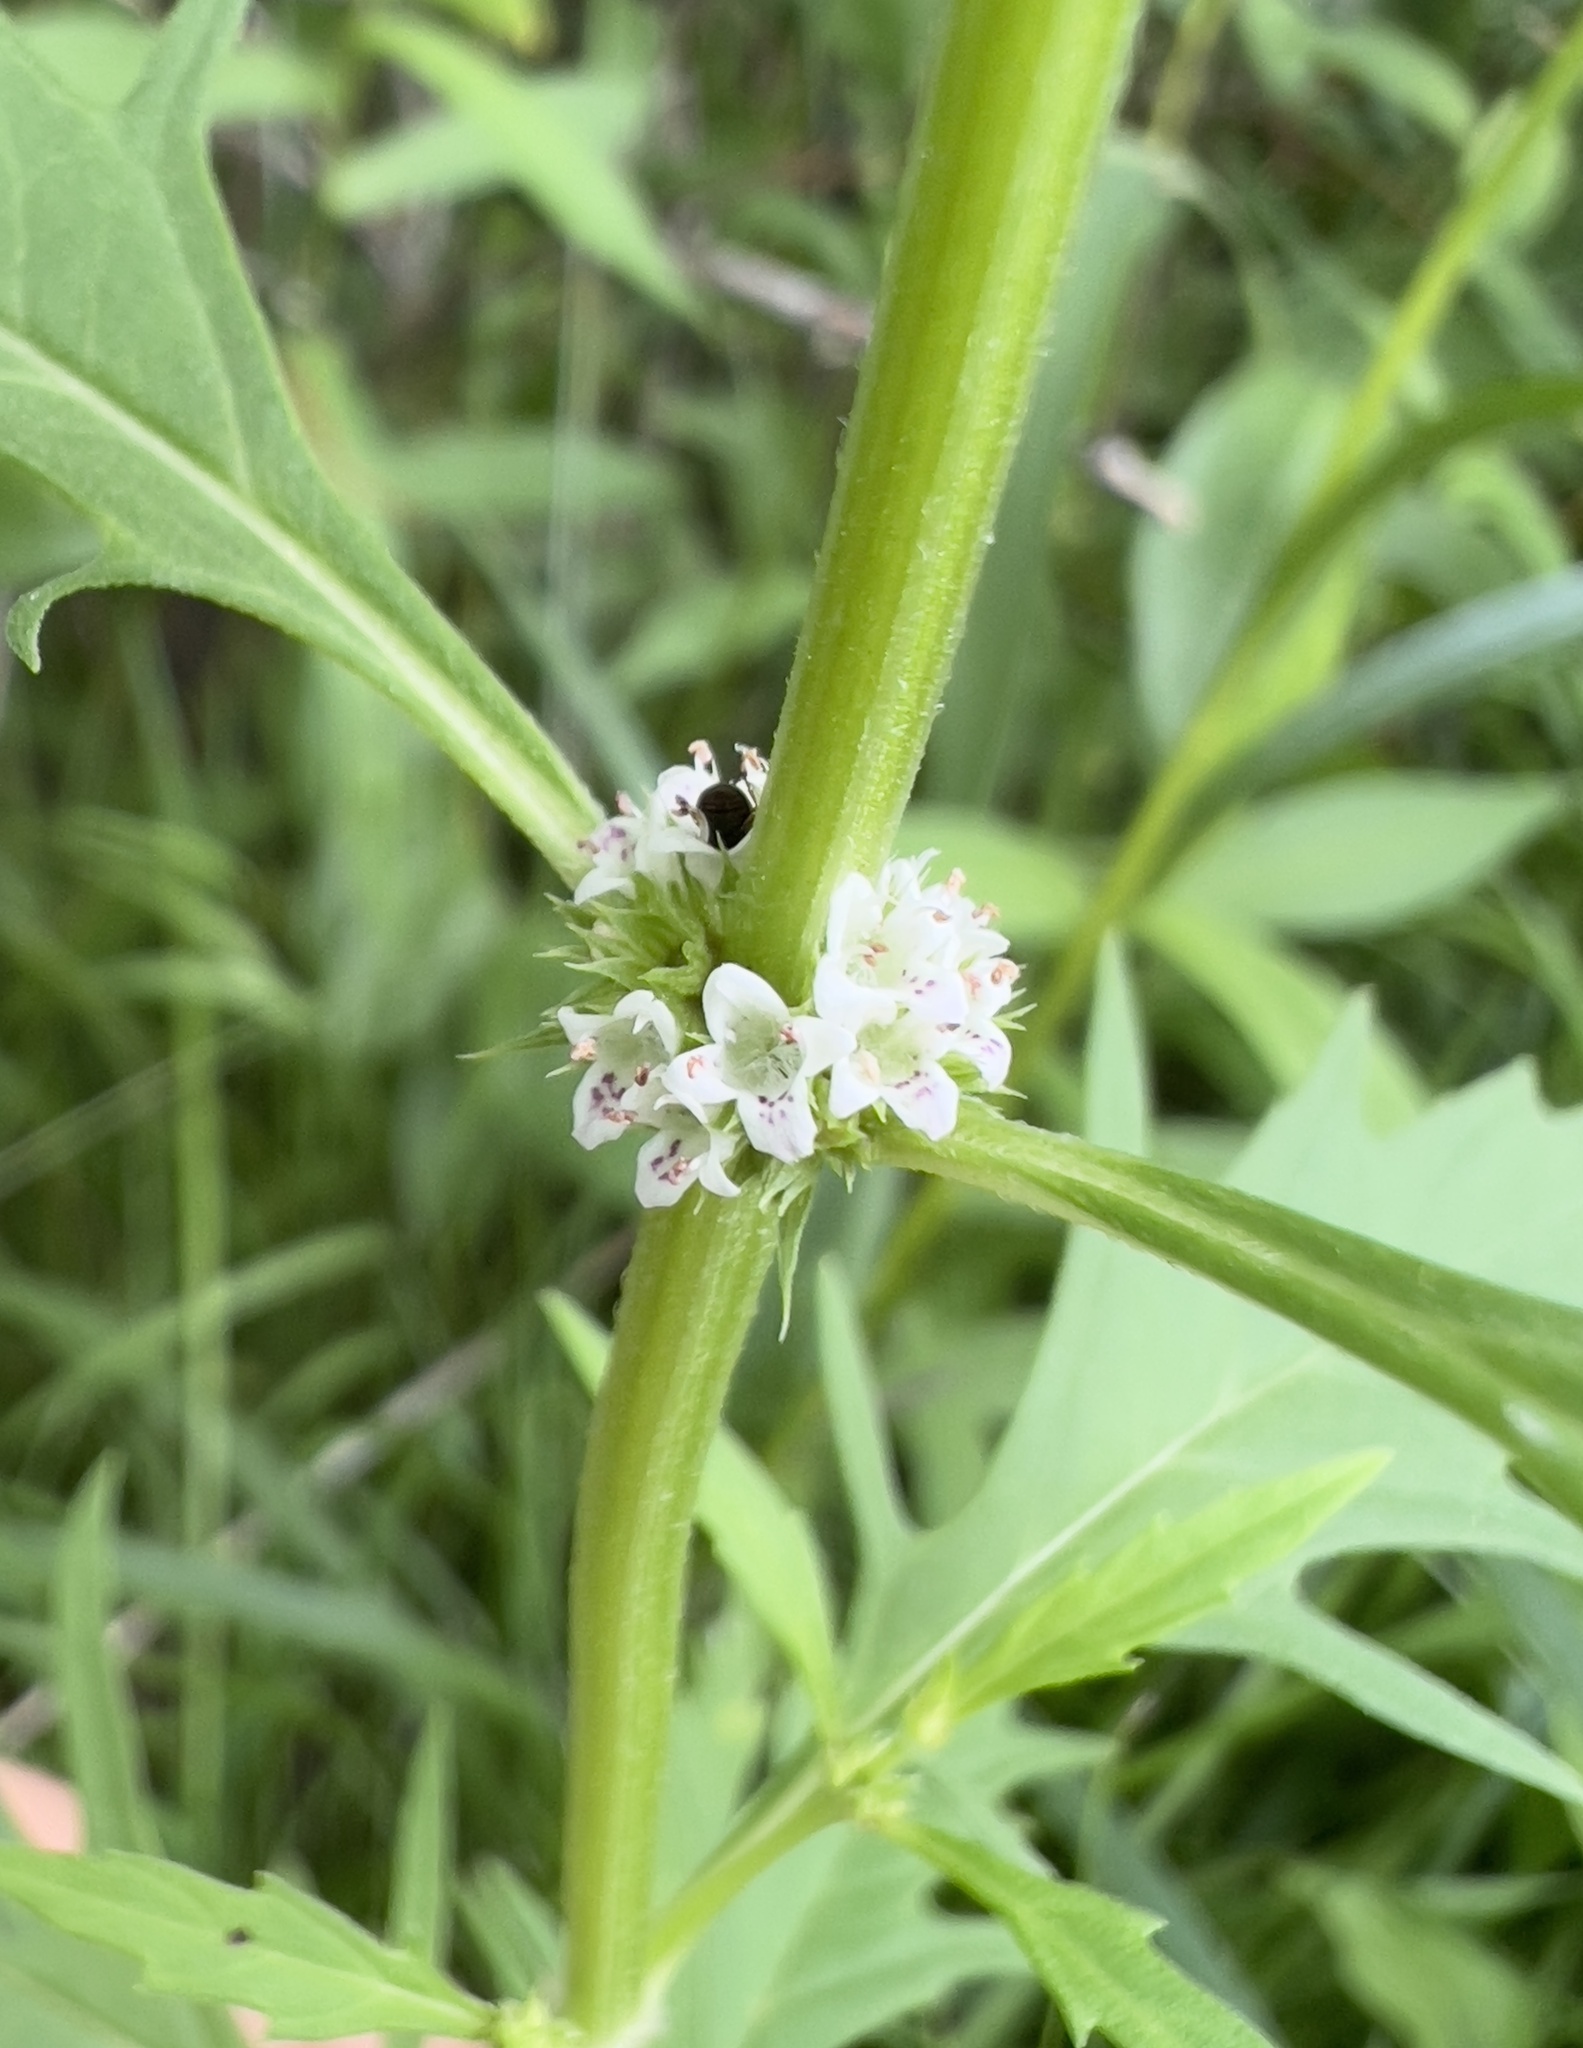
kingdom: Plantae
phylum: Tracheophyta
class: Magnoliopsida
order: Lamiales
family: Lamiaceae
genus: Lycopus
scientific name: Lycopus americanus
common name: American bugleweed
